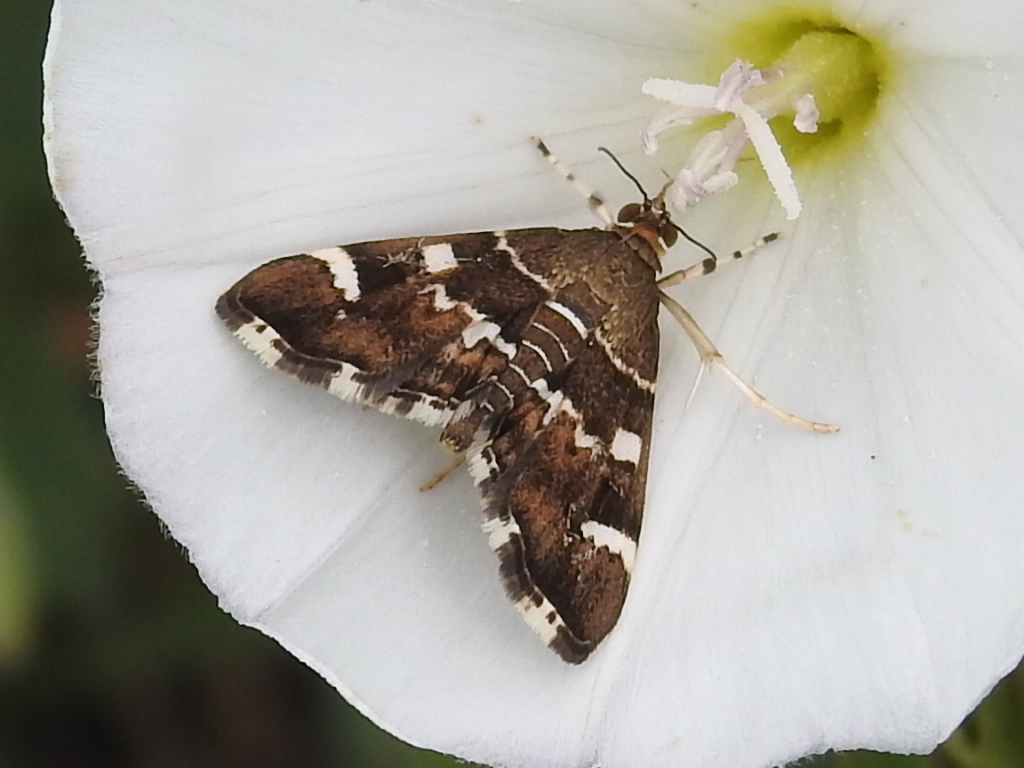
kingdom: Animalia
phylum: Arthropoda
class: Insecta
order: Lepidoptera
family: Crambidae
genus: Hymenia
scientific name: Hymenia perspectalis
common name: Spotted beet webworm
